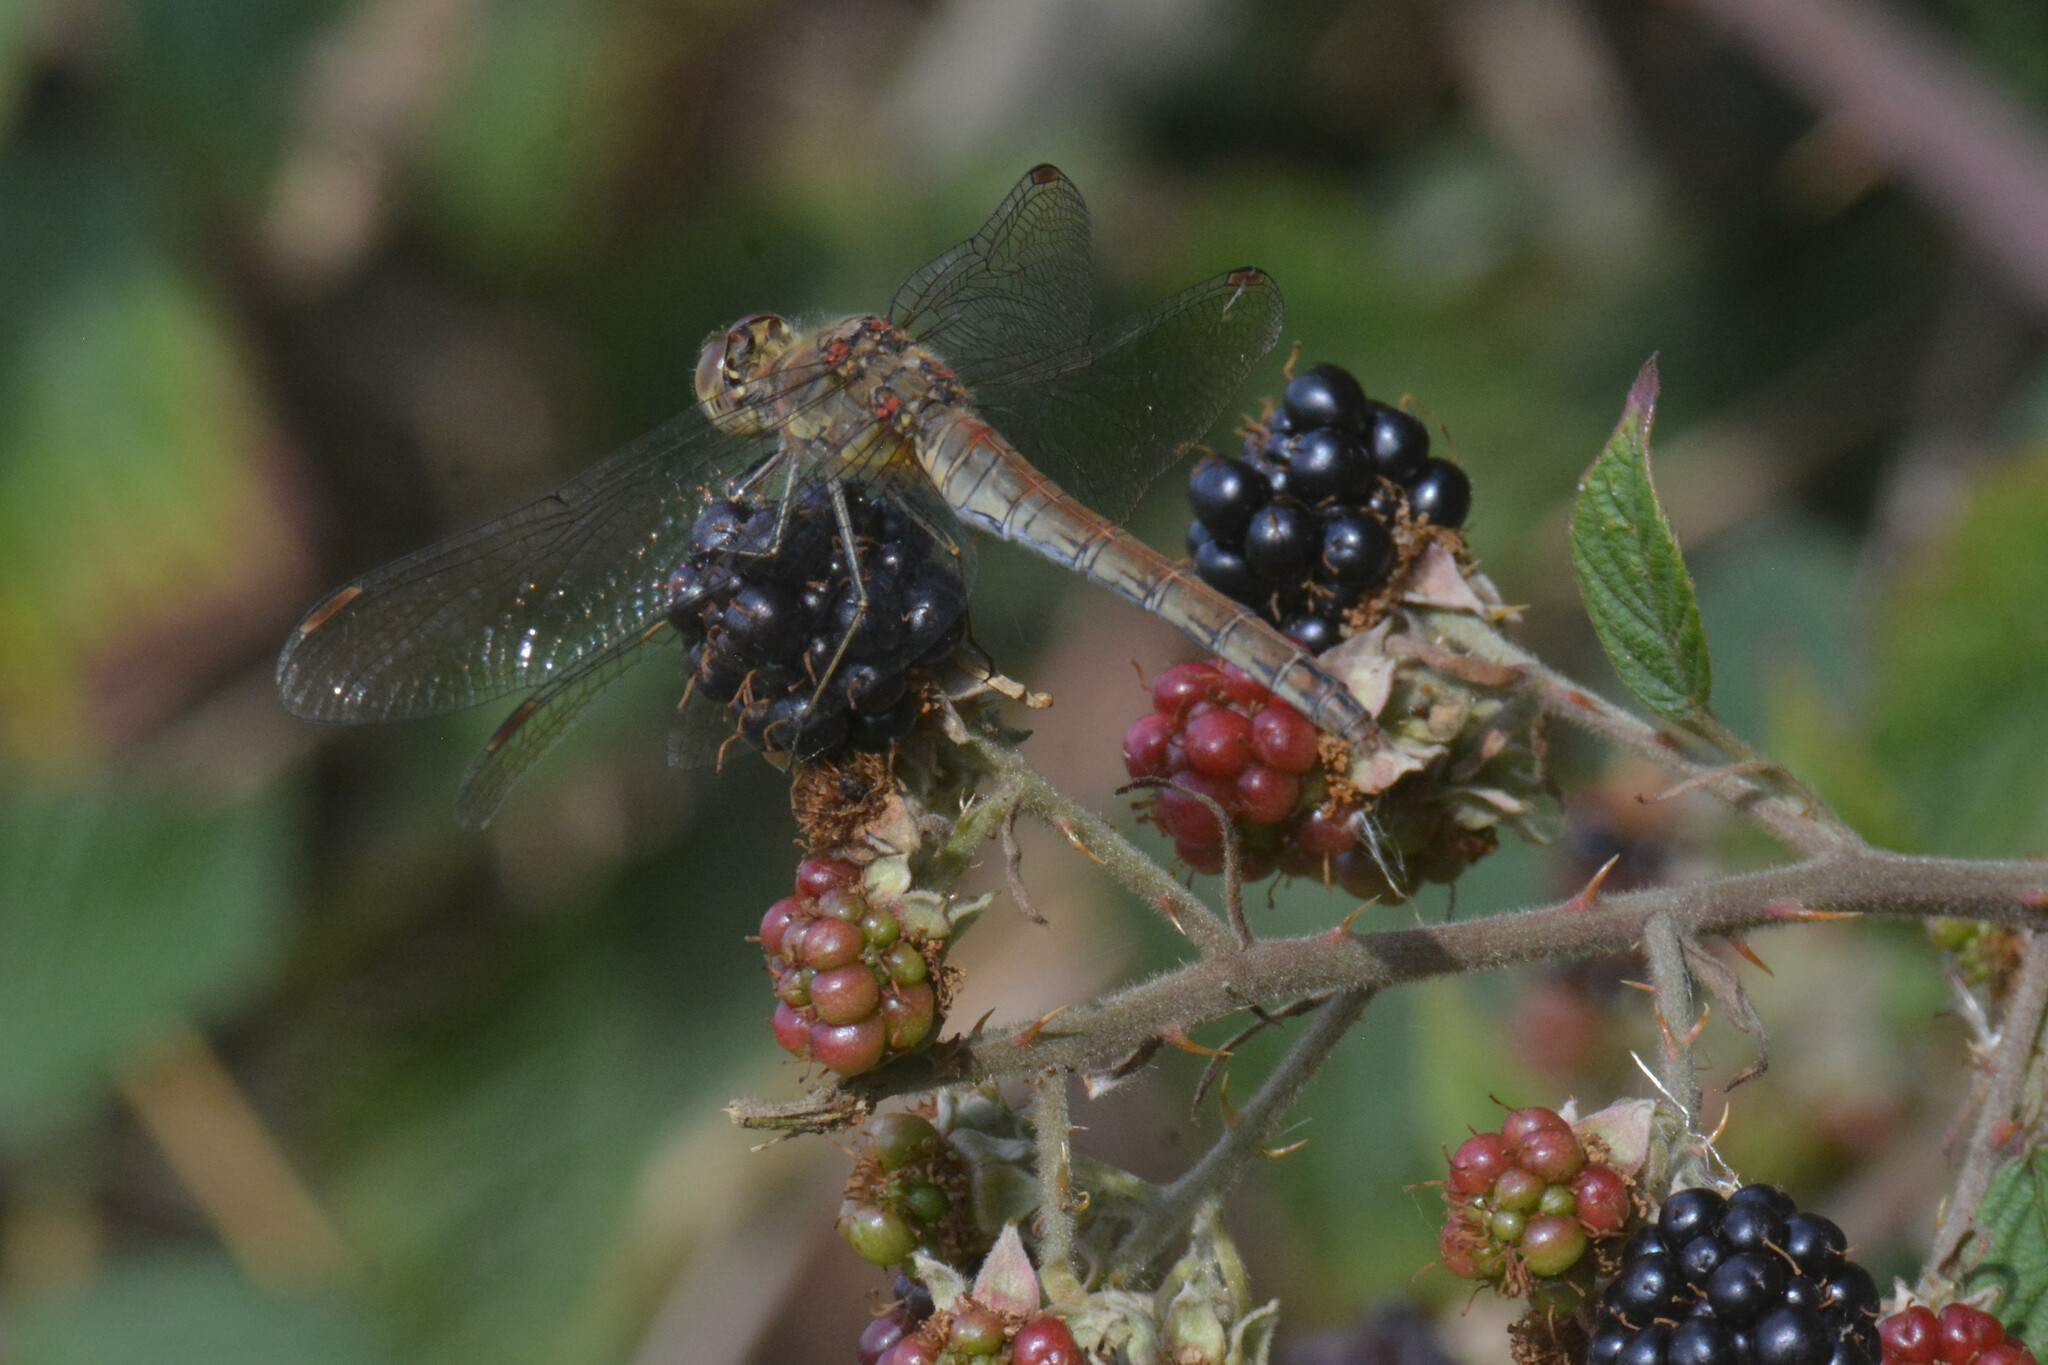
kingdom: Animalia
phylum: Arthropoda
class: Insecta
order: Odonata
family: Libellulidae
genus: Sympetrum
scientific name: Sympetrum striolatum
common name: Common darter
